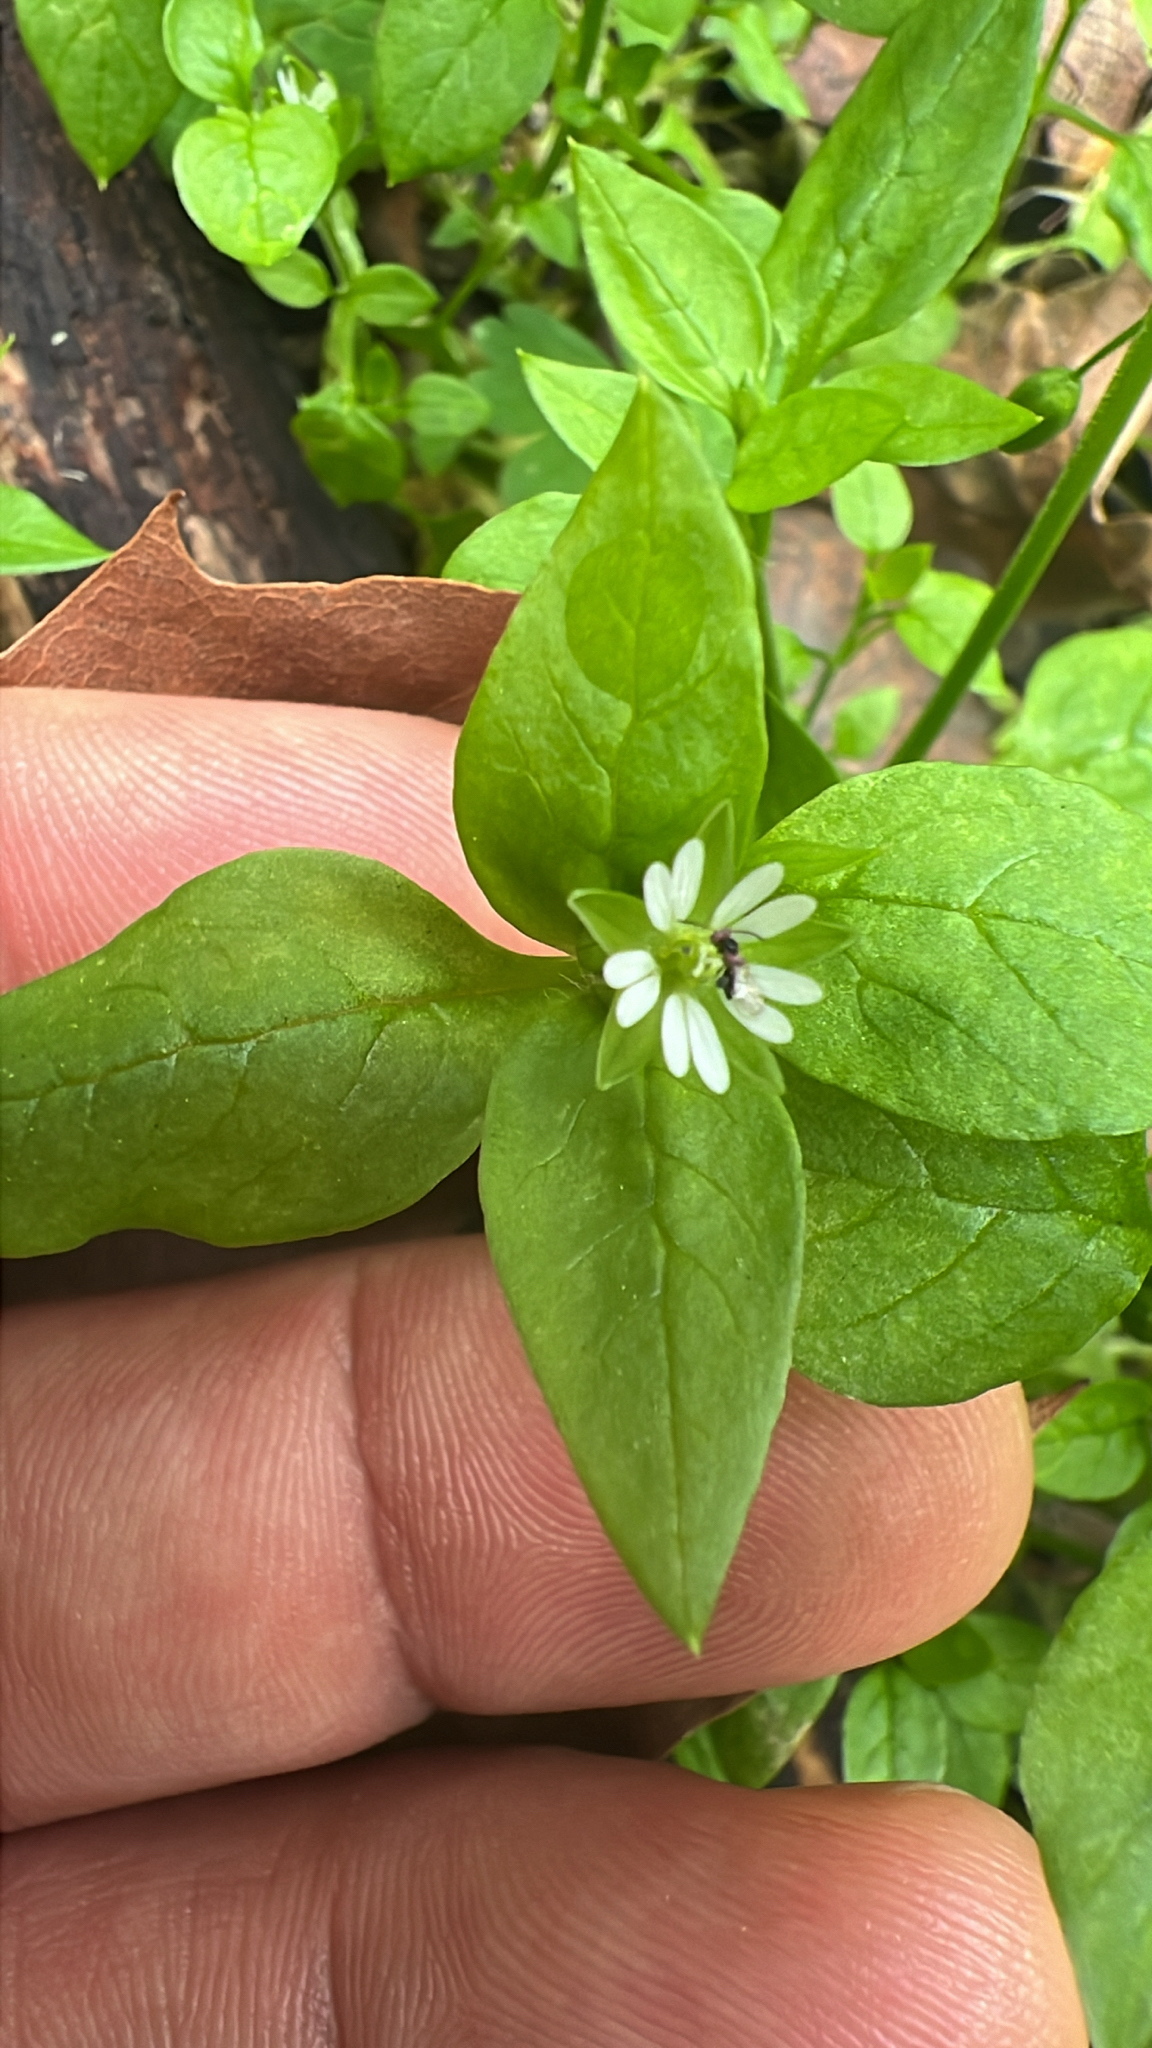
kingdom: Plantae
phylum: Tracheophyta
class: Magnoliopsida
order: Caryophyllales
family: Caryophyllaceae
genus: Stellaria
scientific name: Stellaria media
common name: Common chickweed
